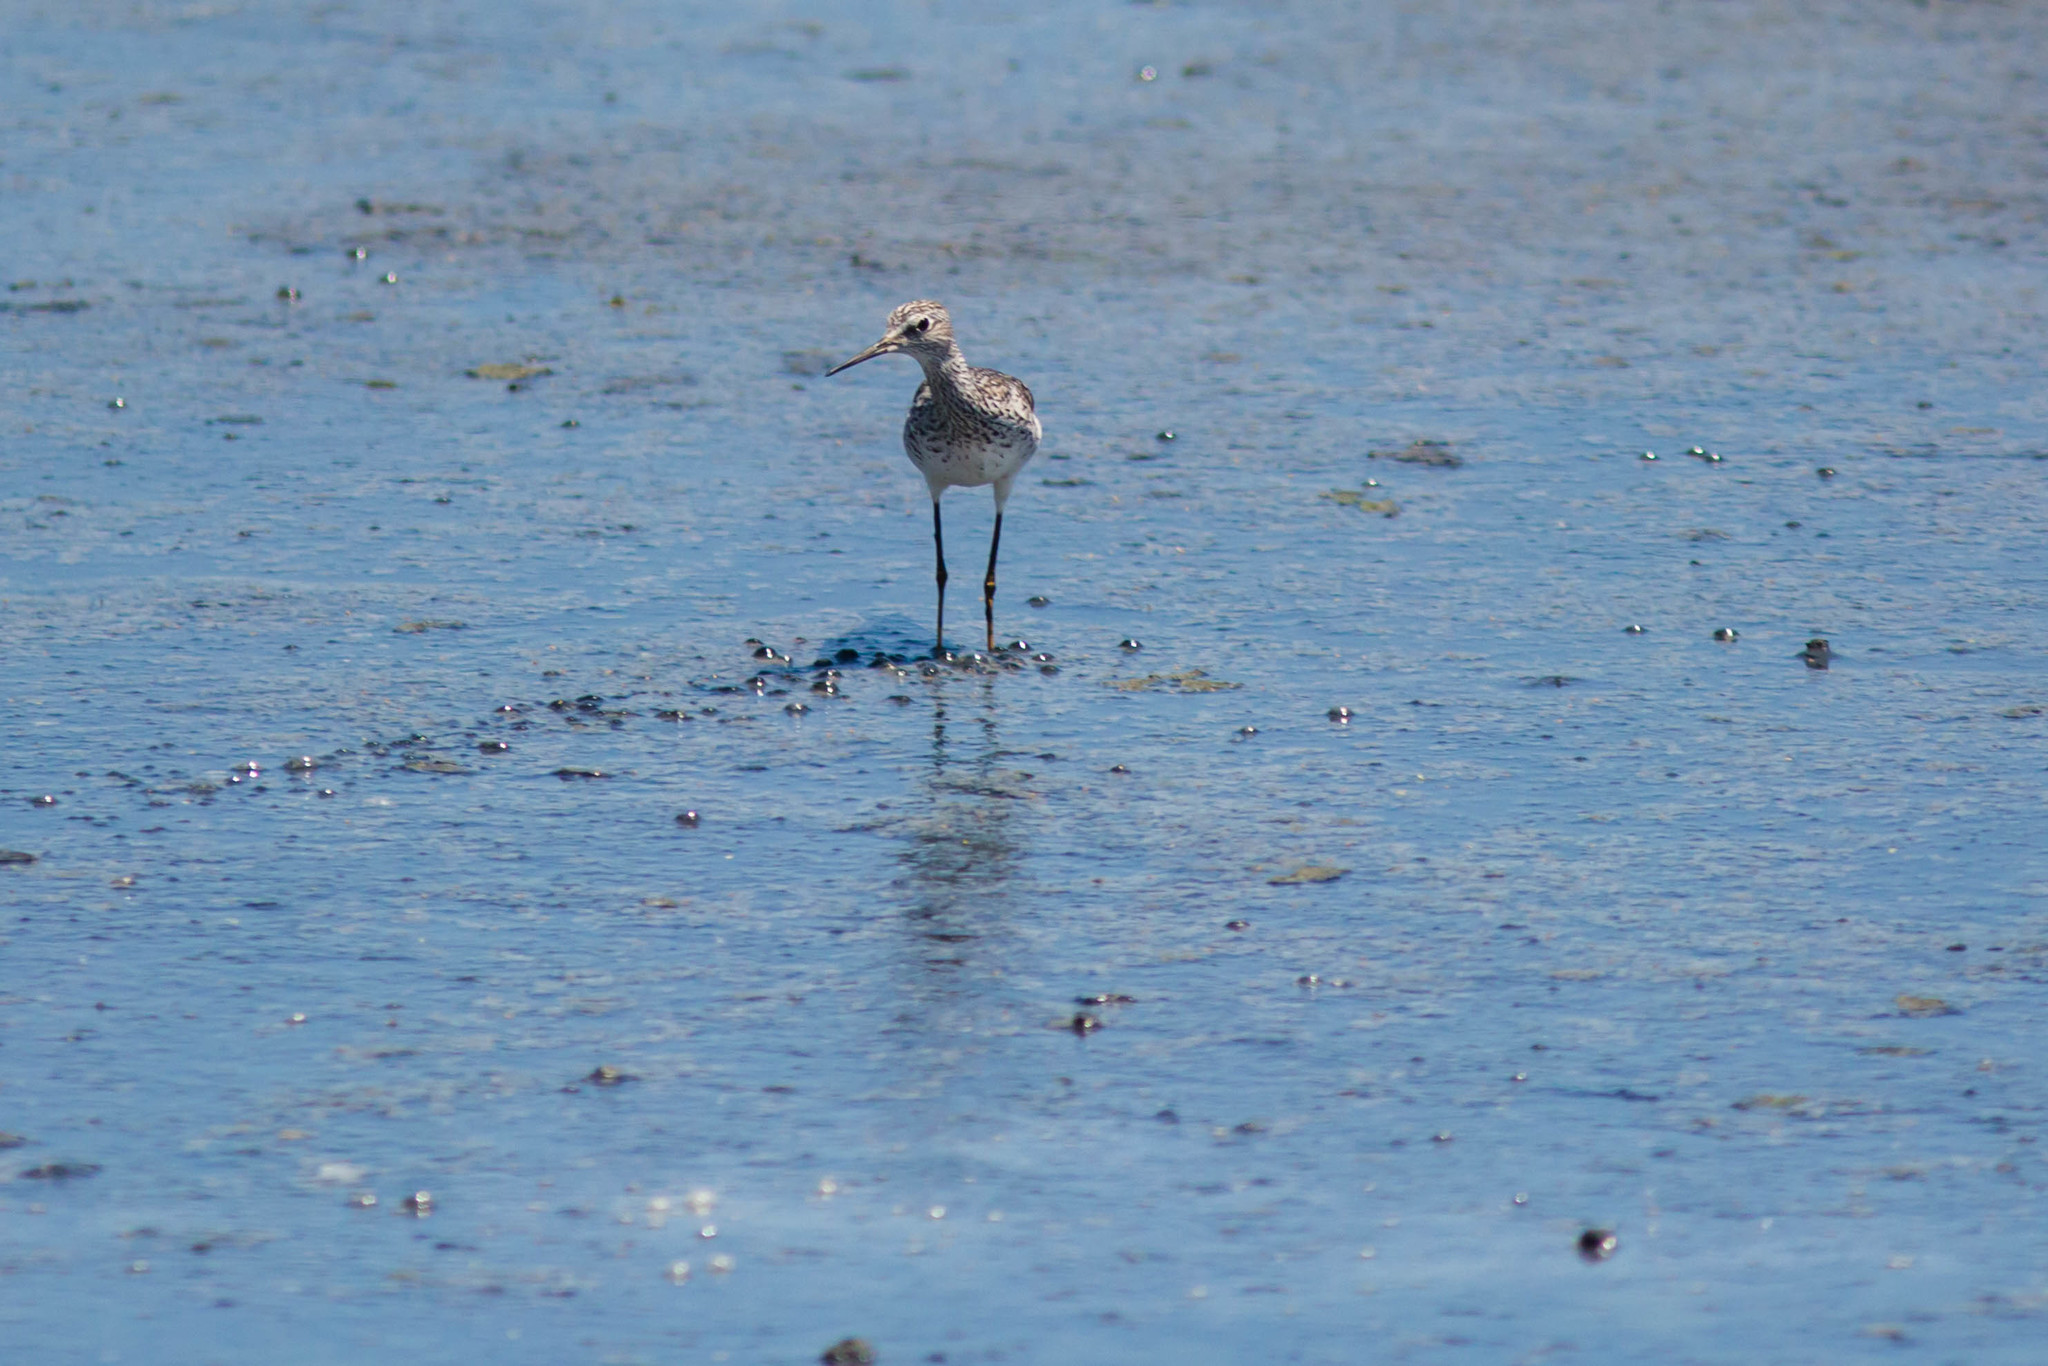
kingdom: Animalia
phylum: Chordata
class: Aves
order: Charadriiformes
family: Scolopacidae
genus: Tringa
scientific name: Tringa flavipes
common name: Lesser yellowlegs
